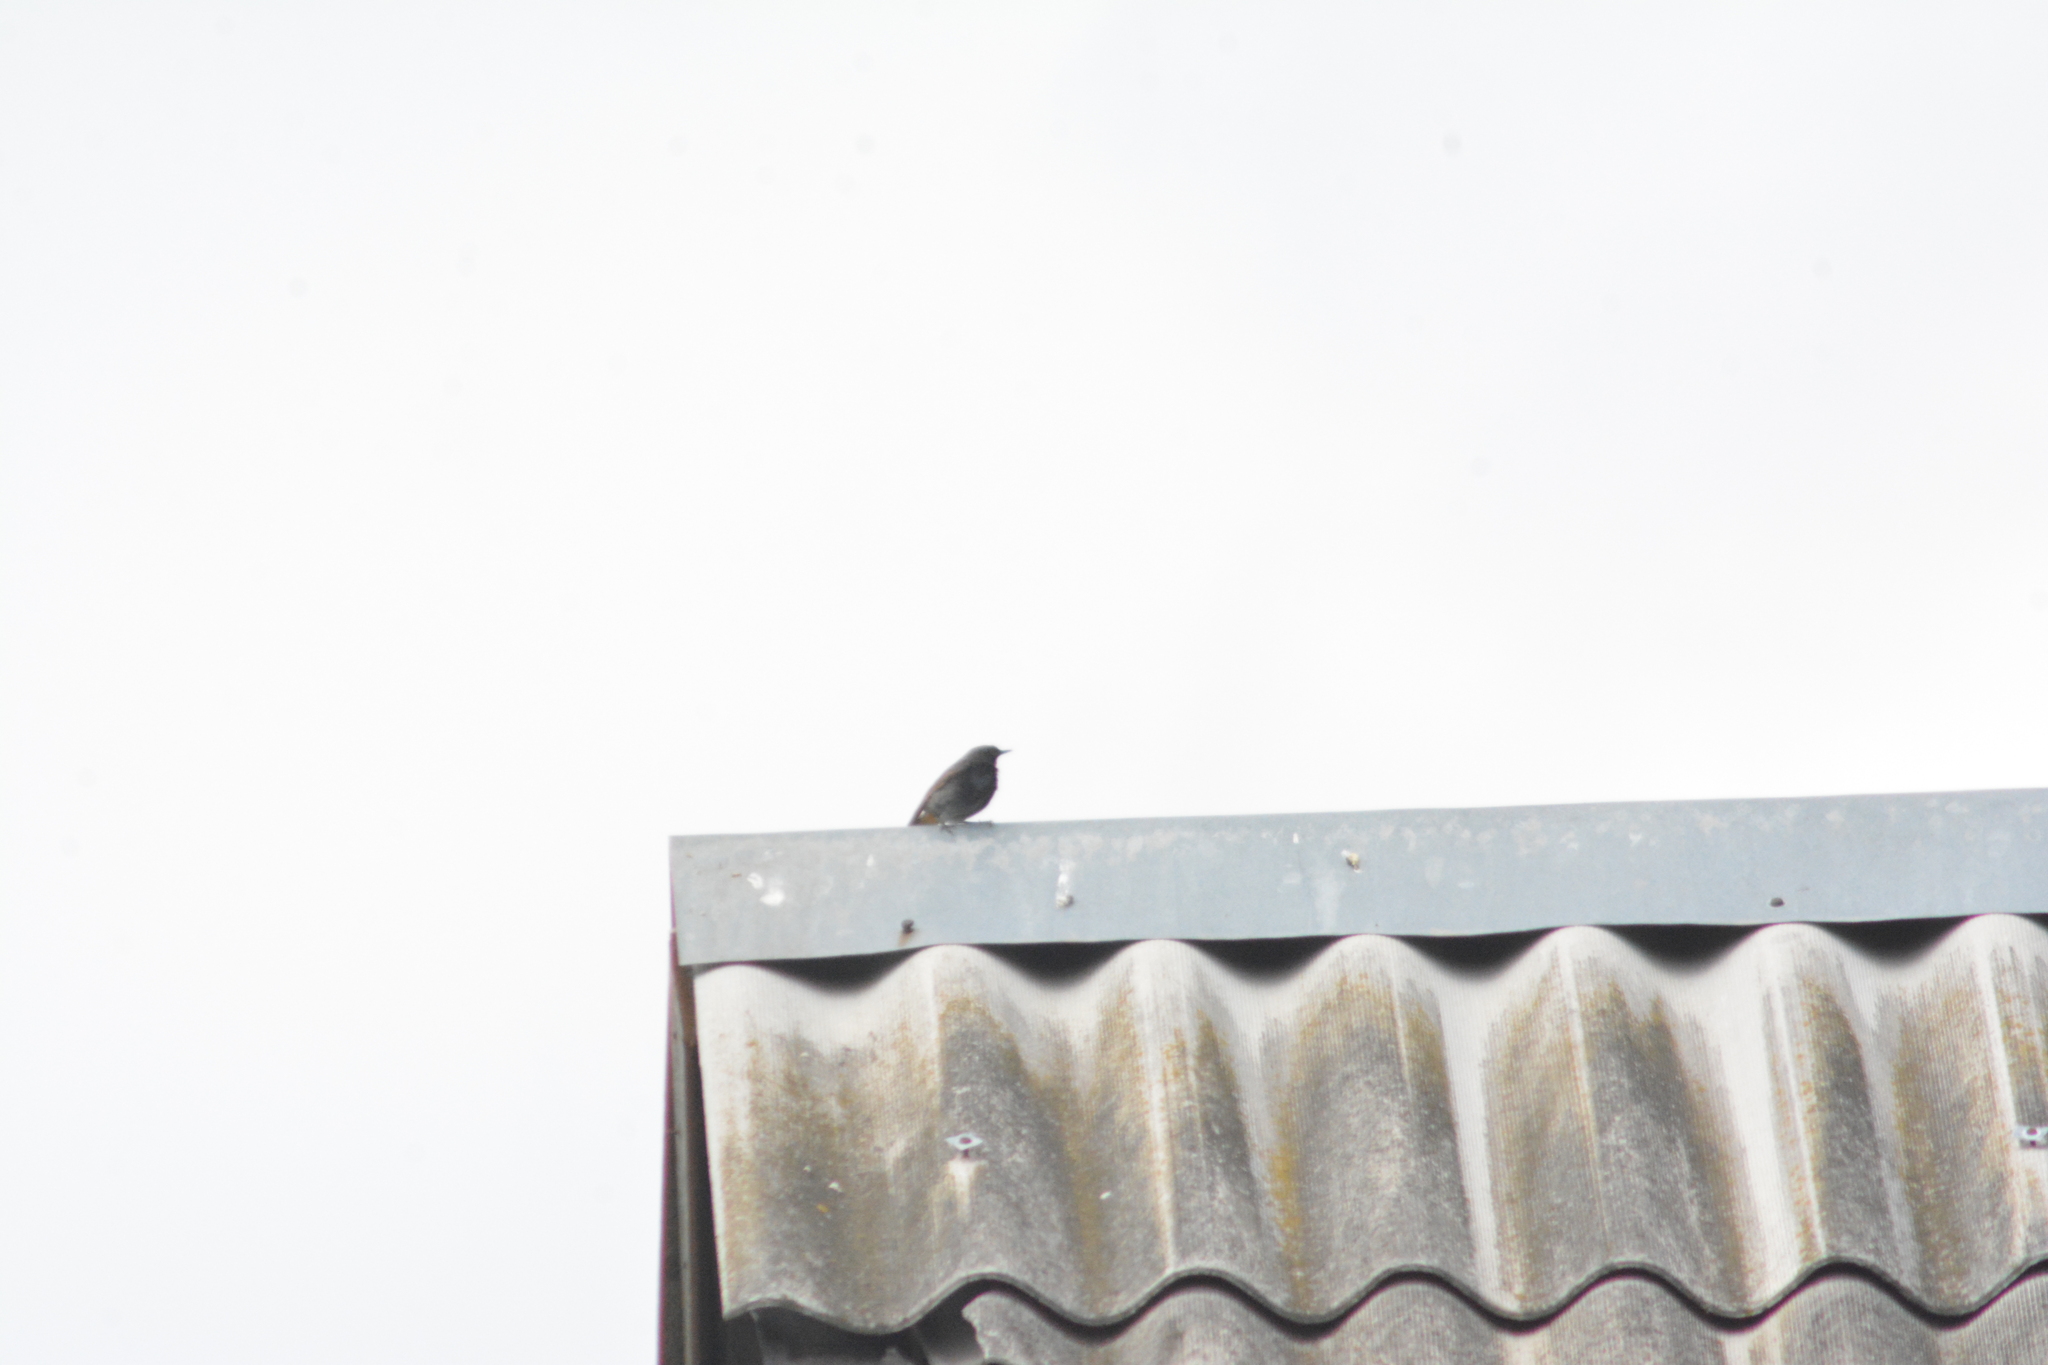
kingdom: Animalia
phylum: Chordata
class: Aves
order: Passeriformes
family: Muscicapidae
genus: Phoenicurus
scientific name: Phoenicurus ochruros
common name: Black redstart
